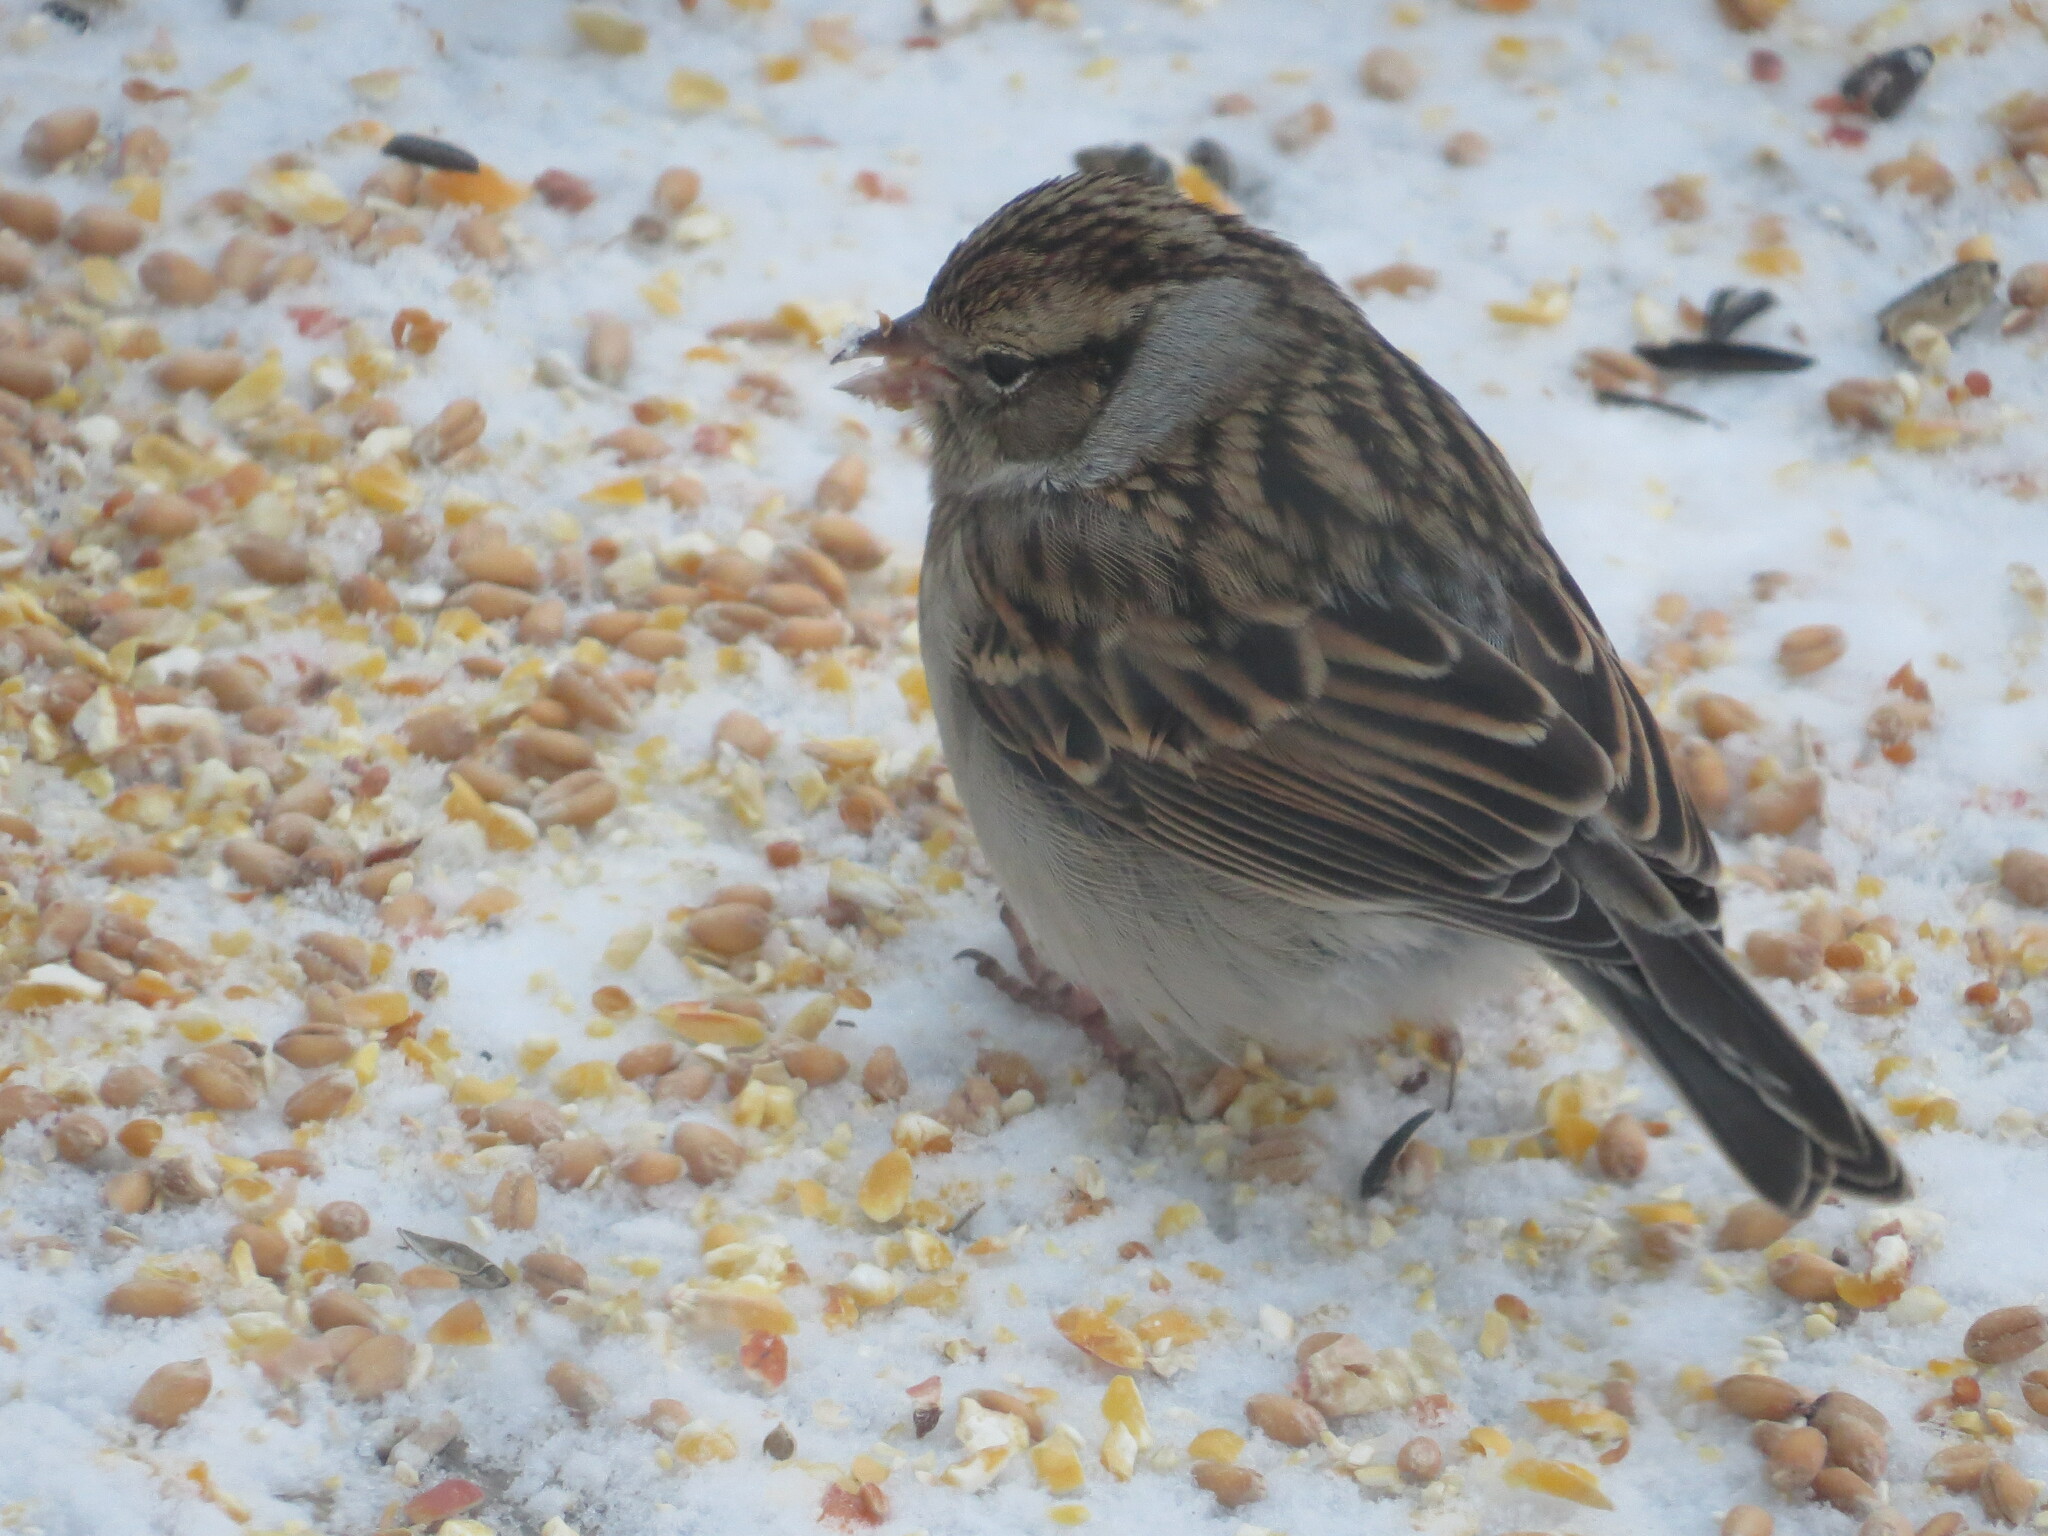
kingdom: Animalia
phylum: Chordata
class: Aves
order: Passeriformes
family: Passerellidae
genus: Spizella
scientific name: Spizella passerina
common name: Chipping sparrow
